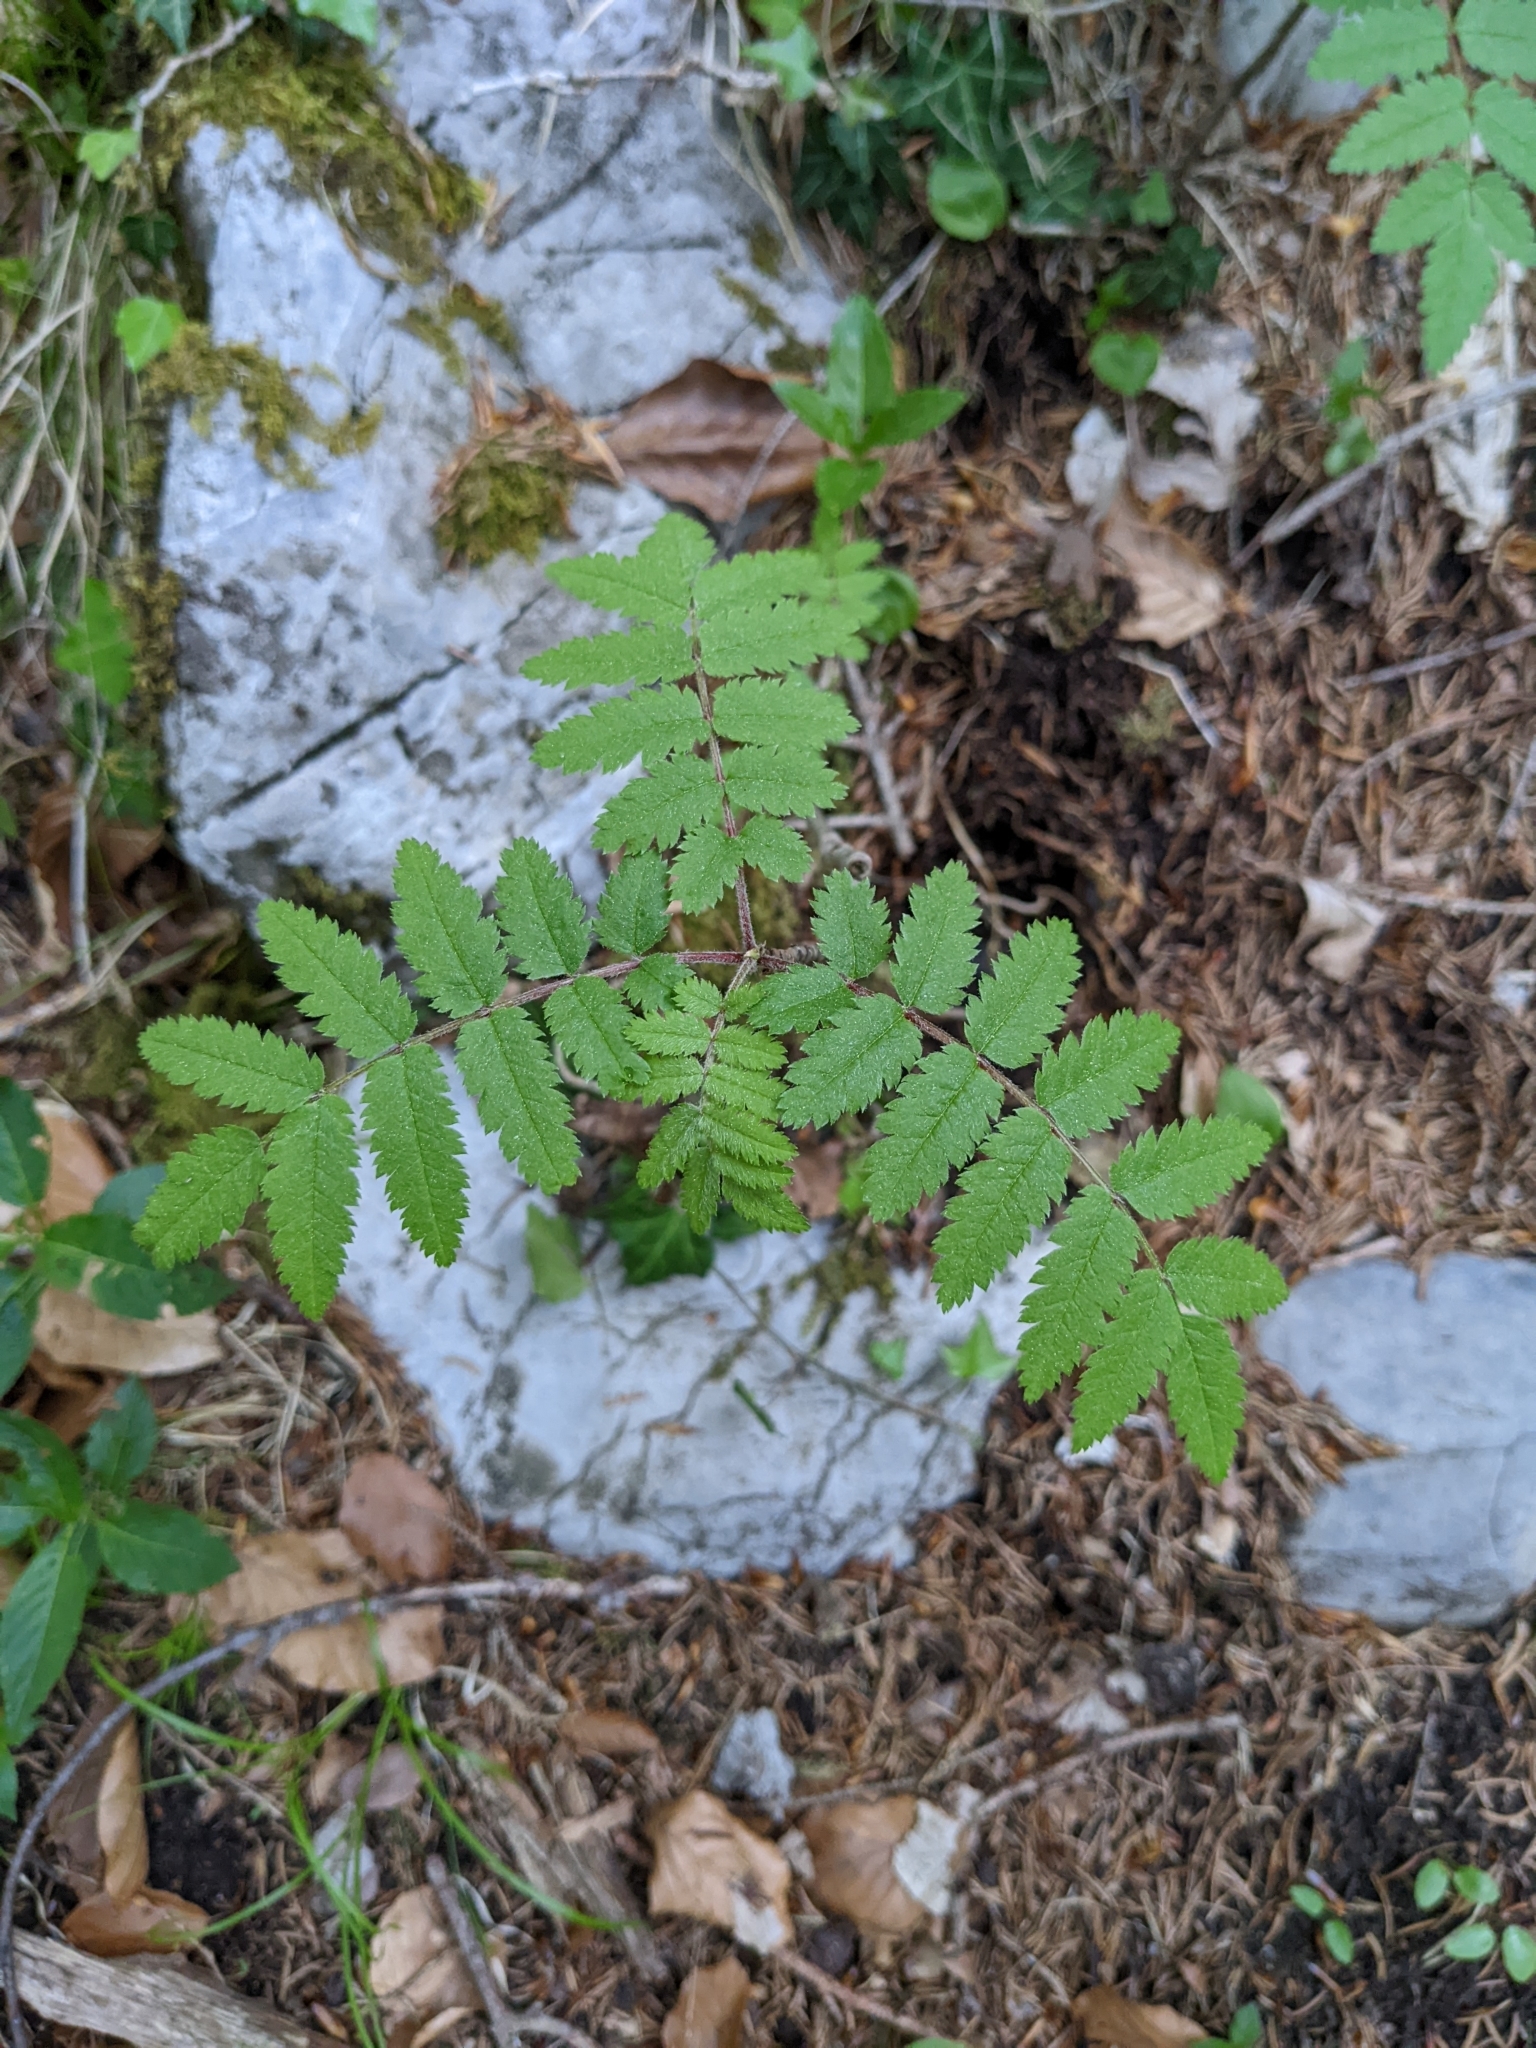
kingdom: Plantae
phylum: Tracheophyta
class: Magnoliopsida
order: Rosales
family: Rosaceae
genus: Sorbus
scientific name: Sorbus aucuparia
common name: Rowan
